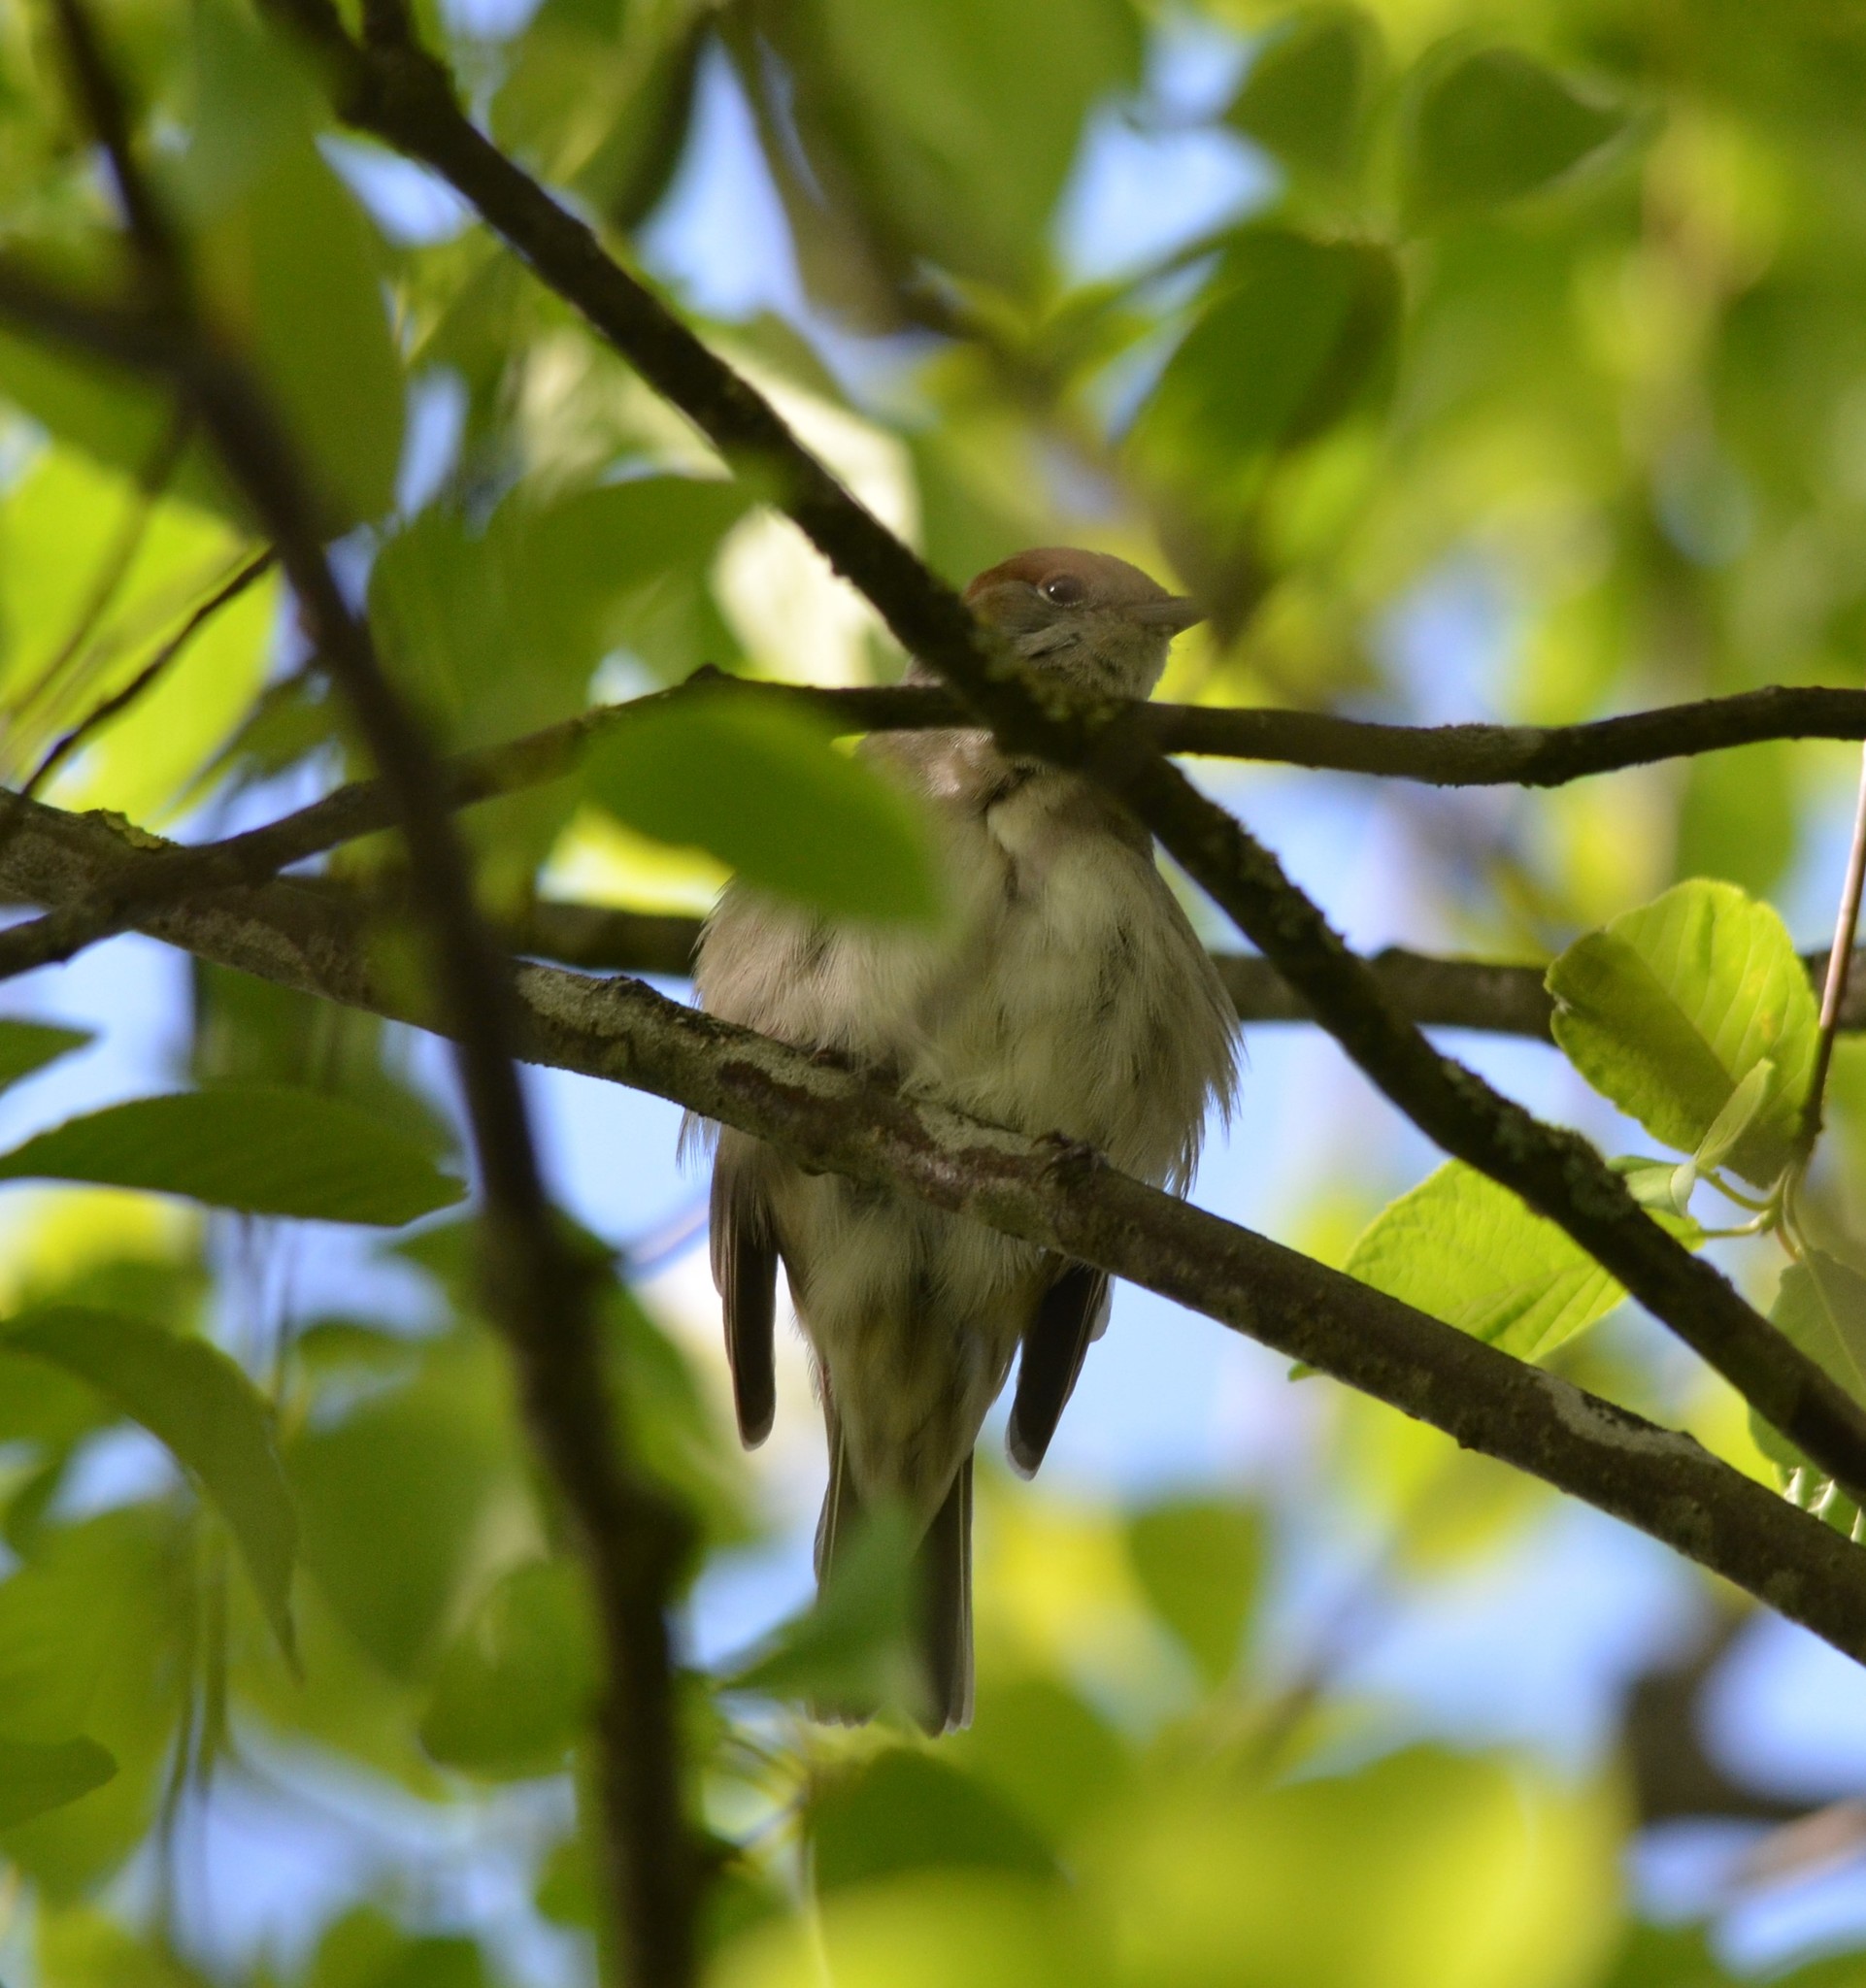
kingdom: Animalia
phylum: Chordata
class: Aves
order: Passeriformes
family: Sylviidae
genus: Sylvia
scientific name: Sylvia atricapilla
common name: Eurasian blackcap
